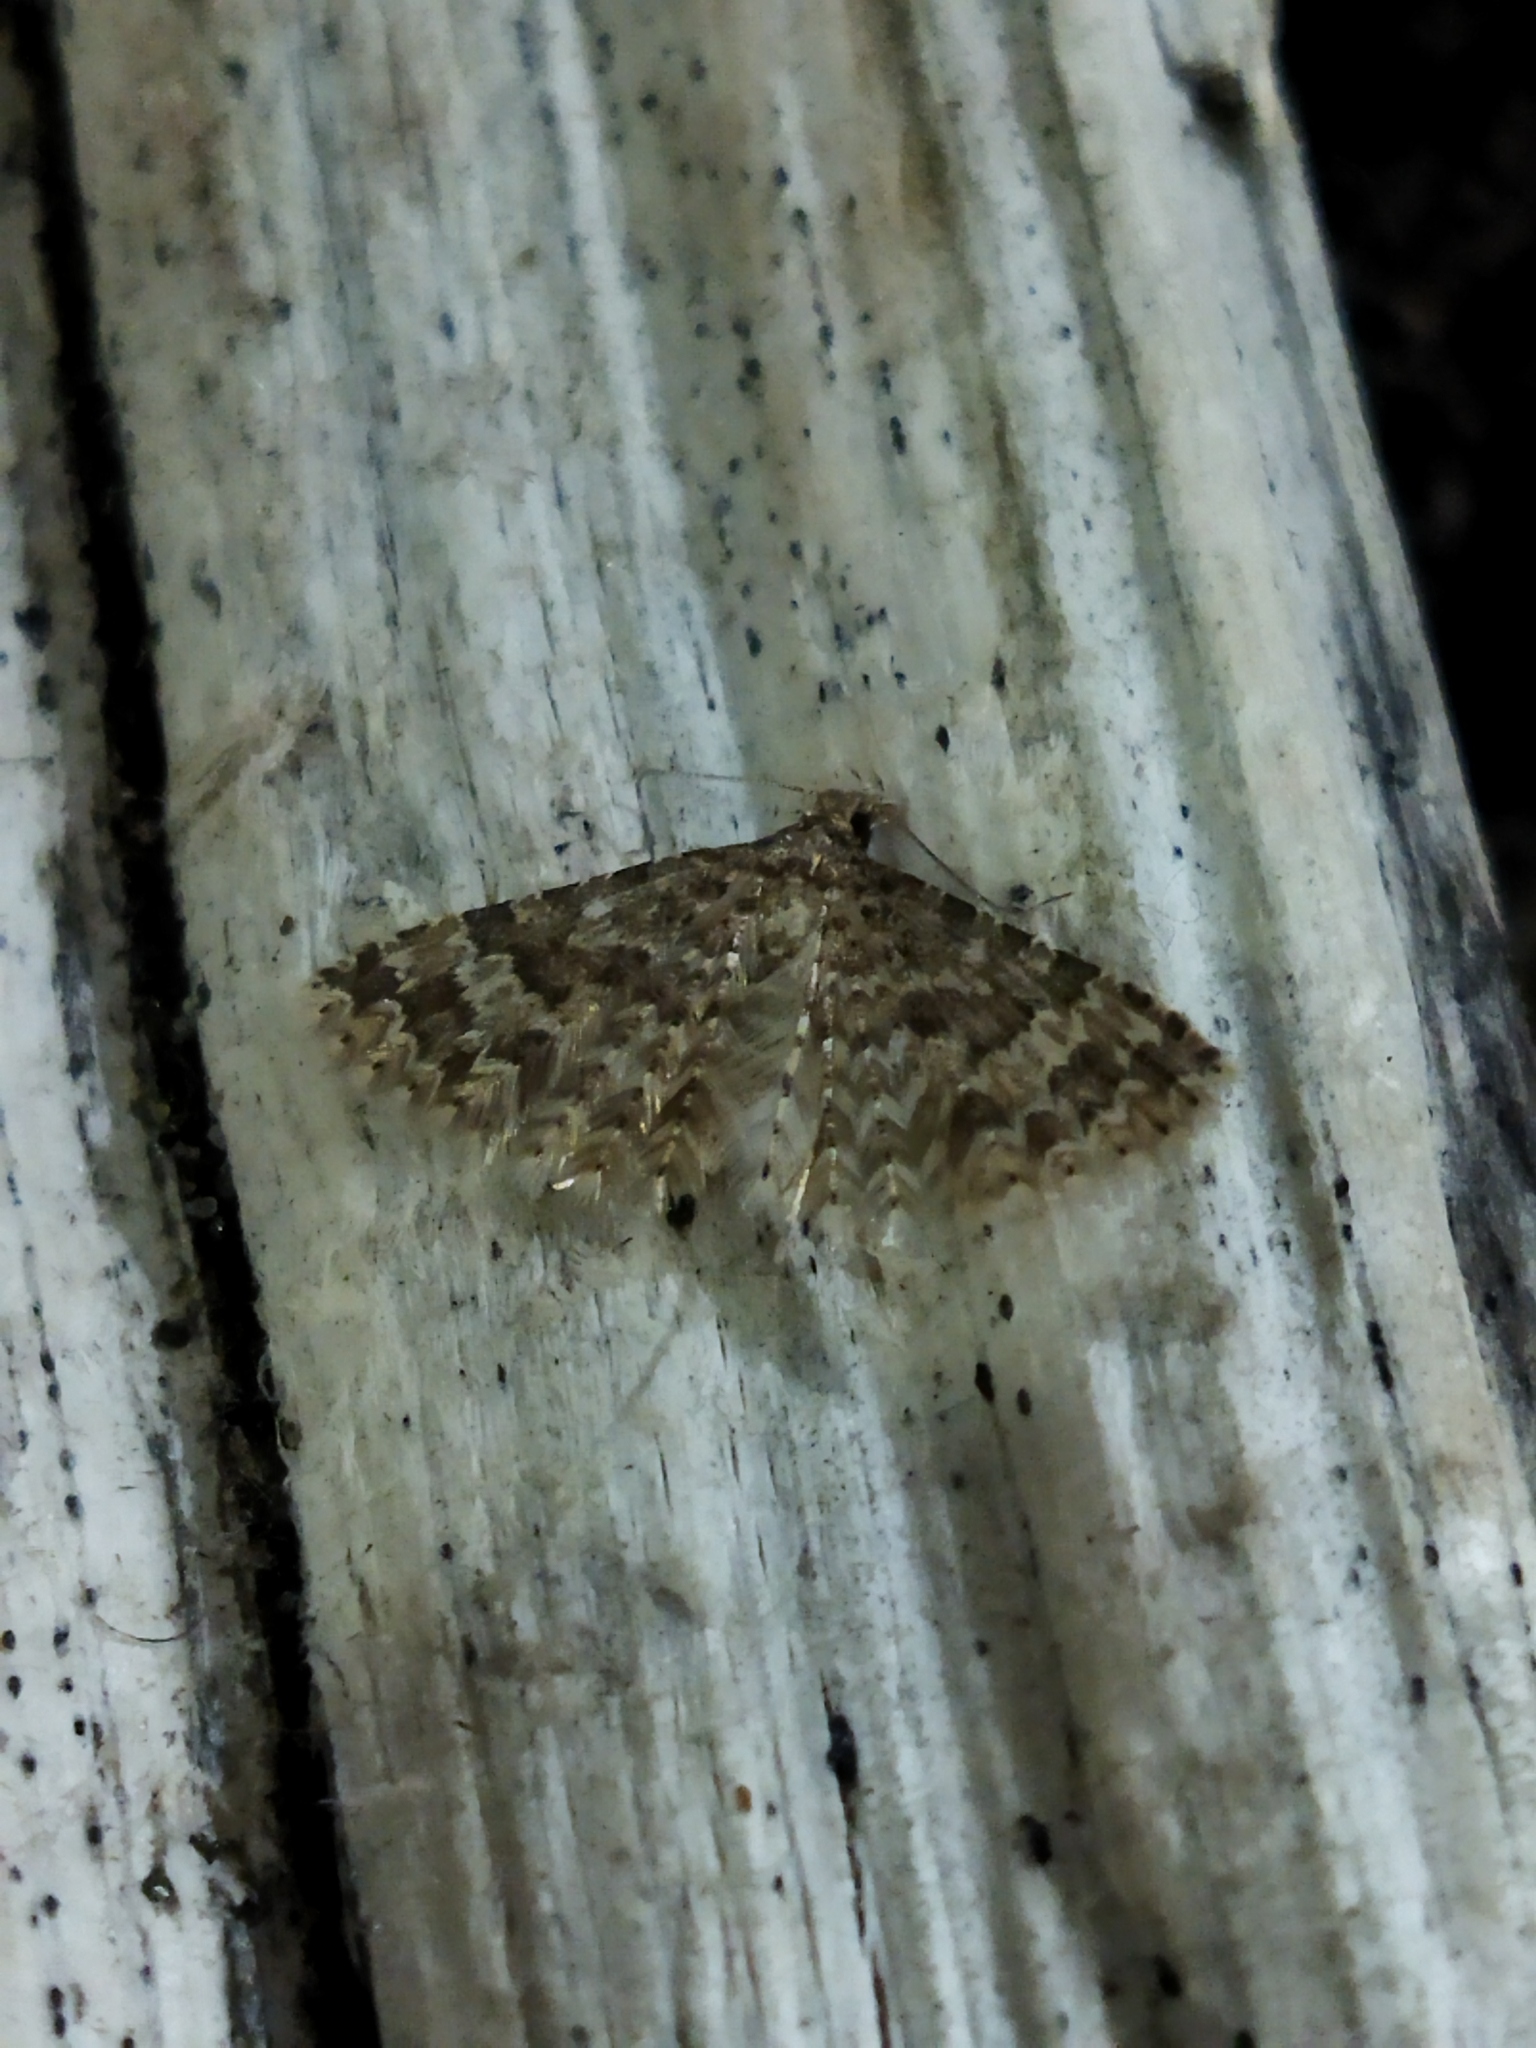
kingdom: Animalia
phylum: Arthropoda
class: Insecta
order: Lepidoptera
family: Alucitidae
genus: Alucita
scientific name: Alucita
